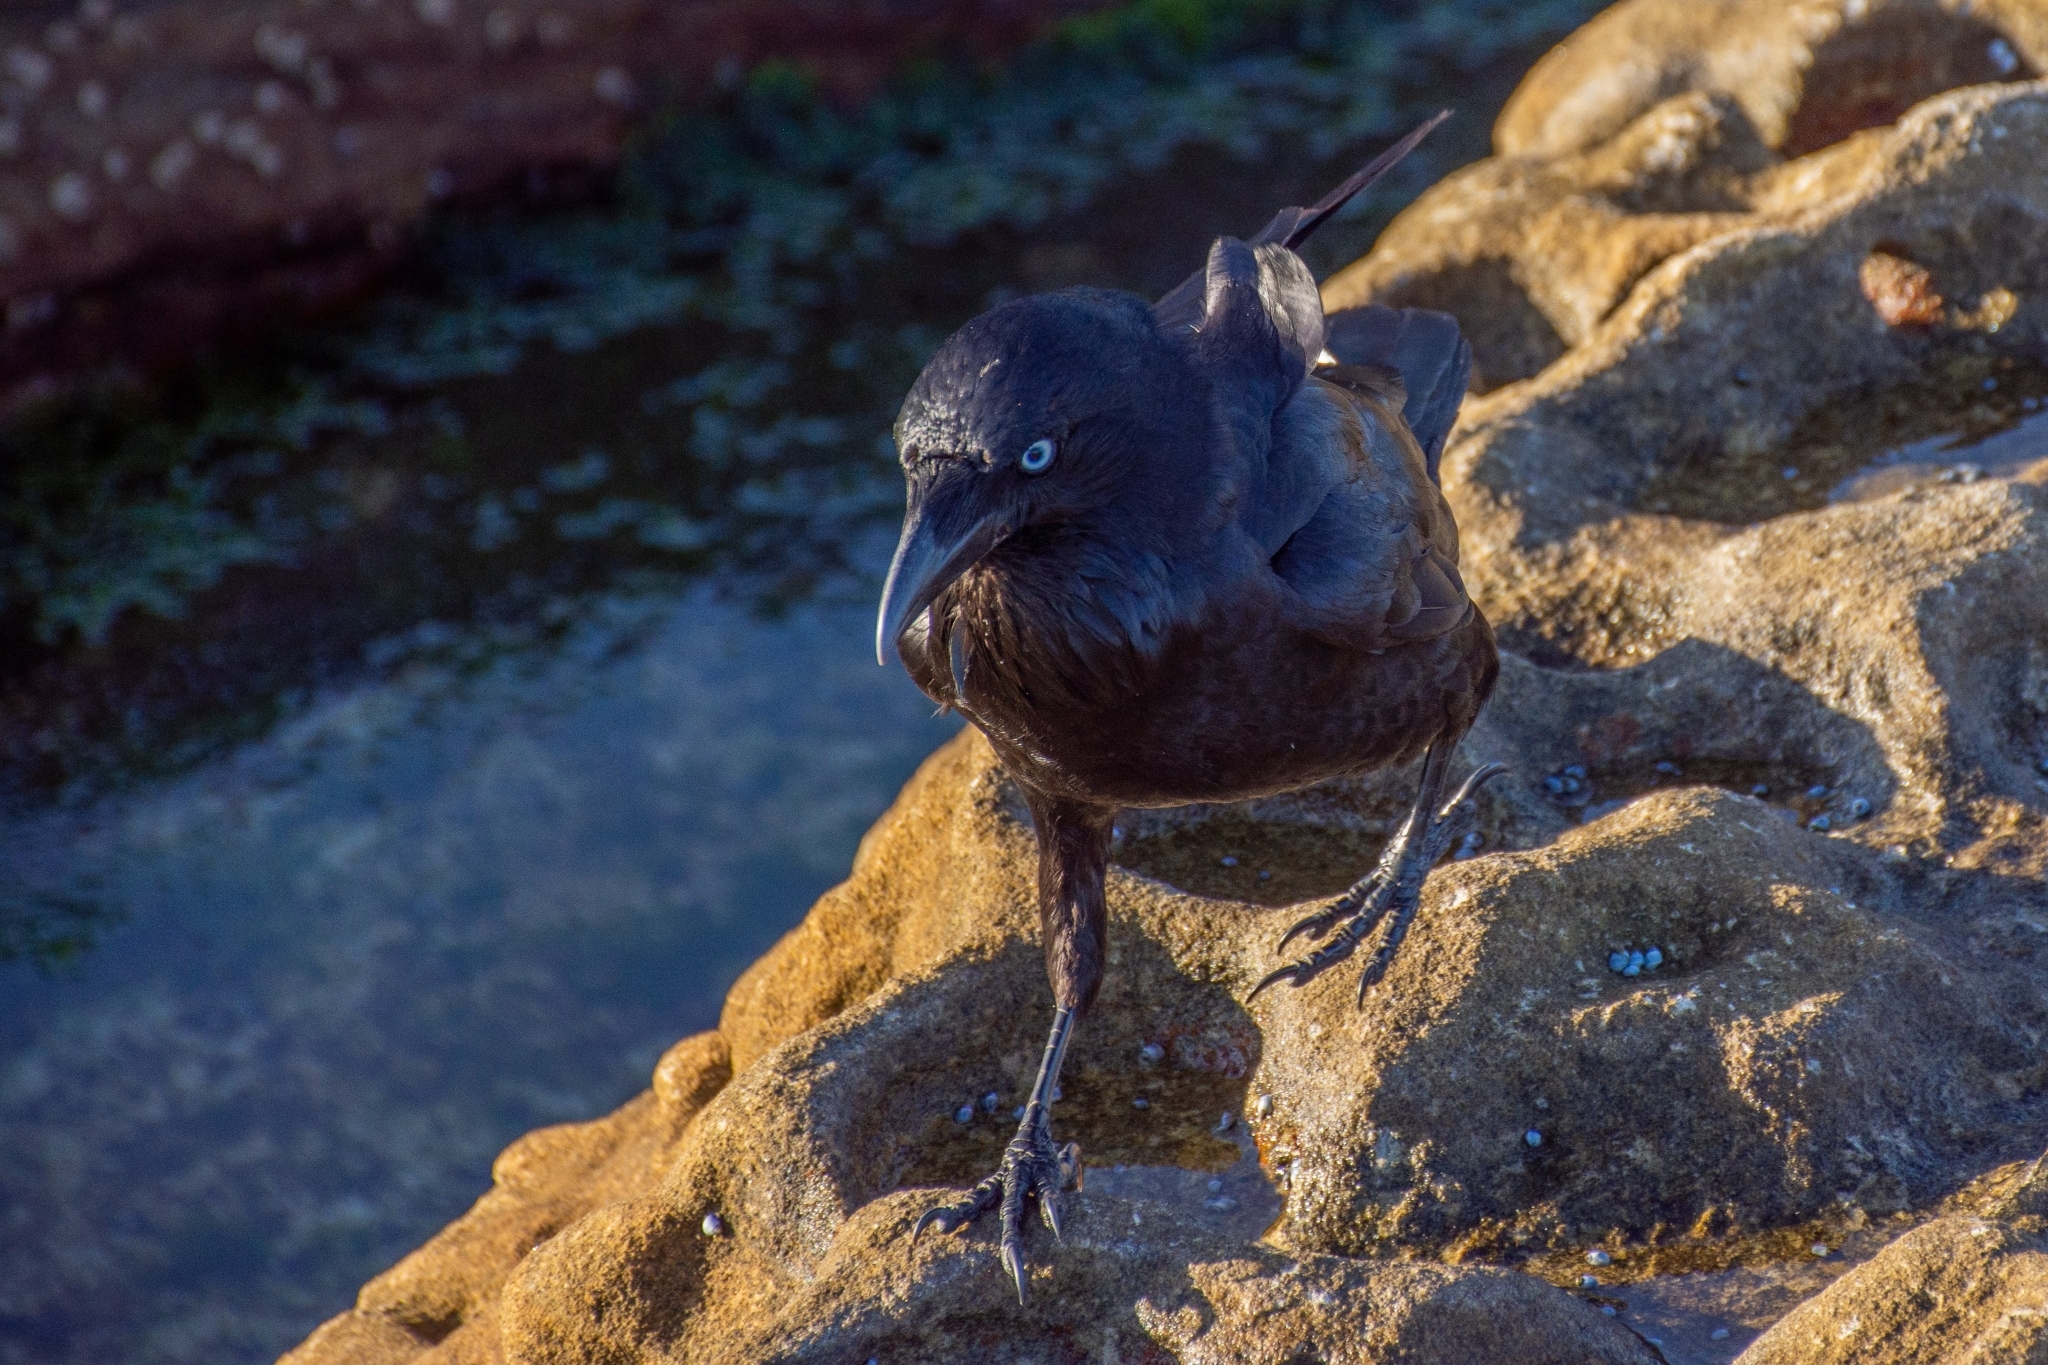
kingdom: Animalia
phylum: Chordata
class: Aves
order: Passeriformes
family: Corvidae
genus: Corvus
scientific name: Corvus coronoides
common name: Australian raven
